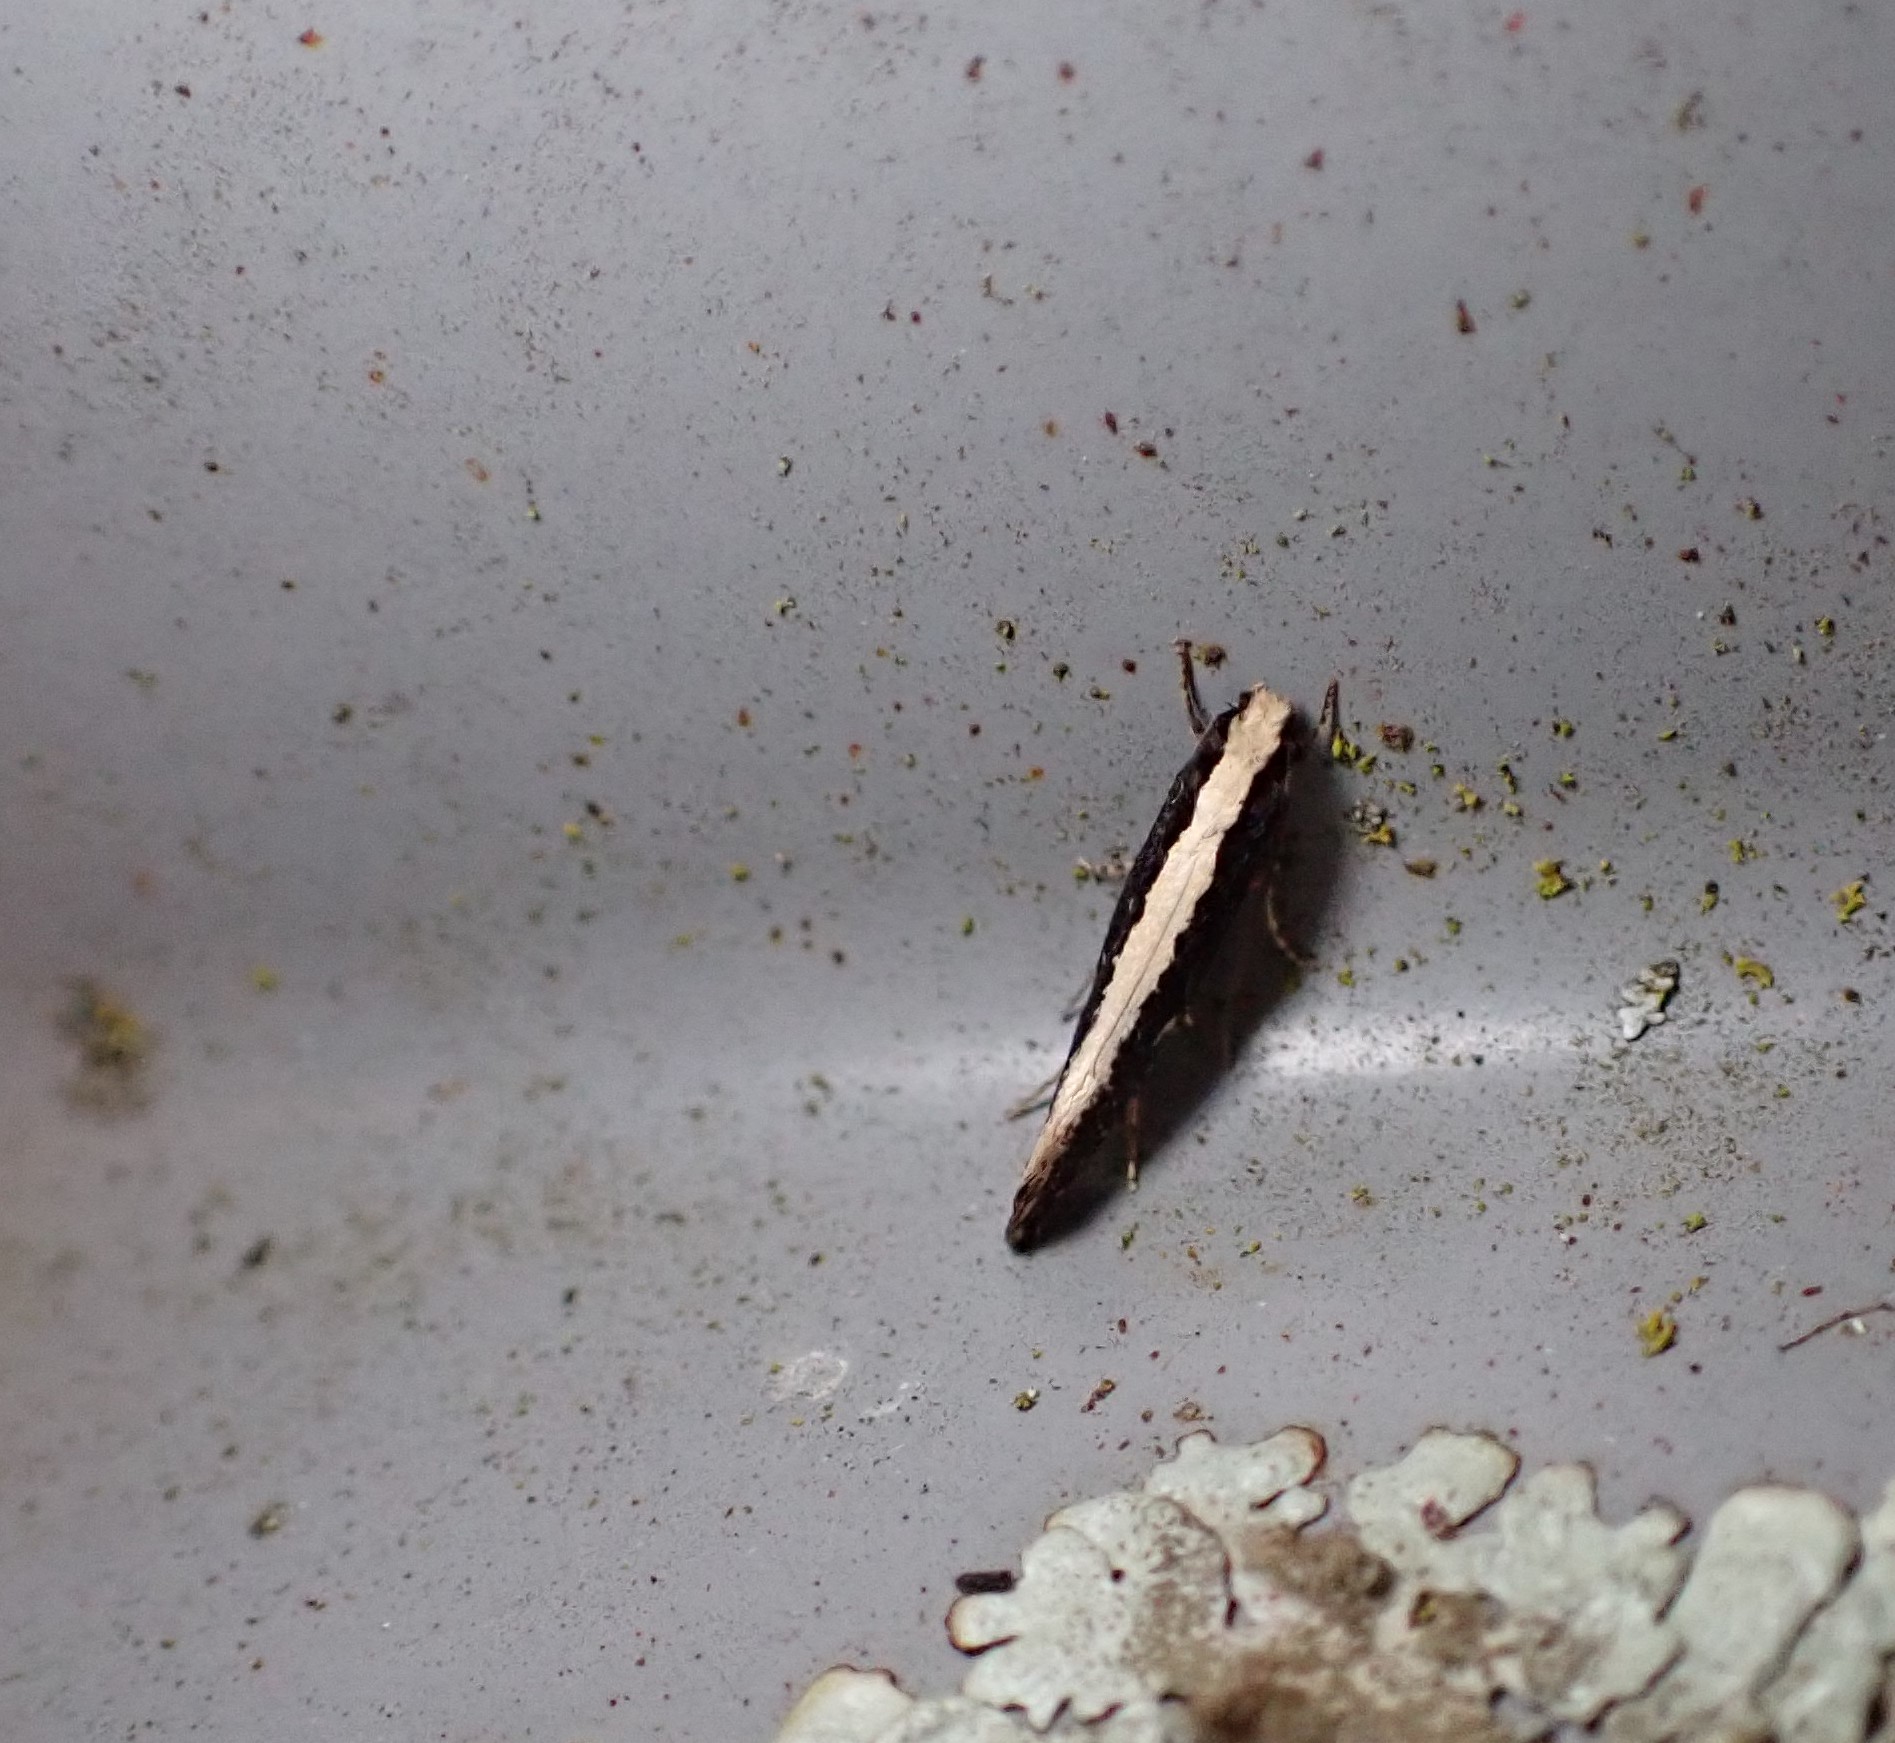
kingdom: Animalia
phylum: Arthropoda
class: Insecta
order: Lepidoptera
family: Tineidae
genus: Monopis
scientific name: Monopis ethelella
